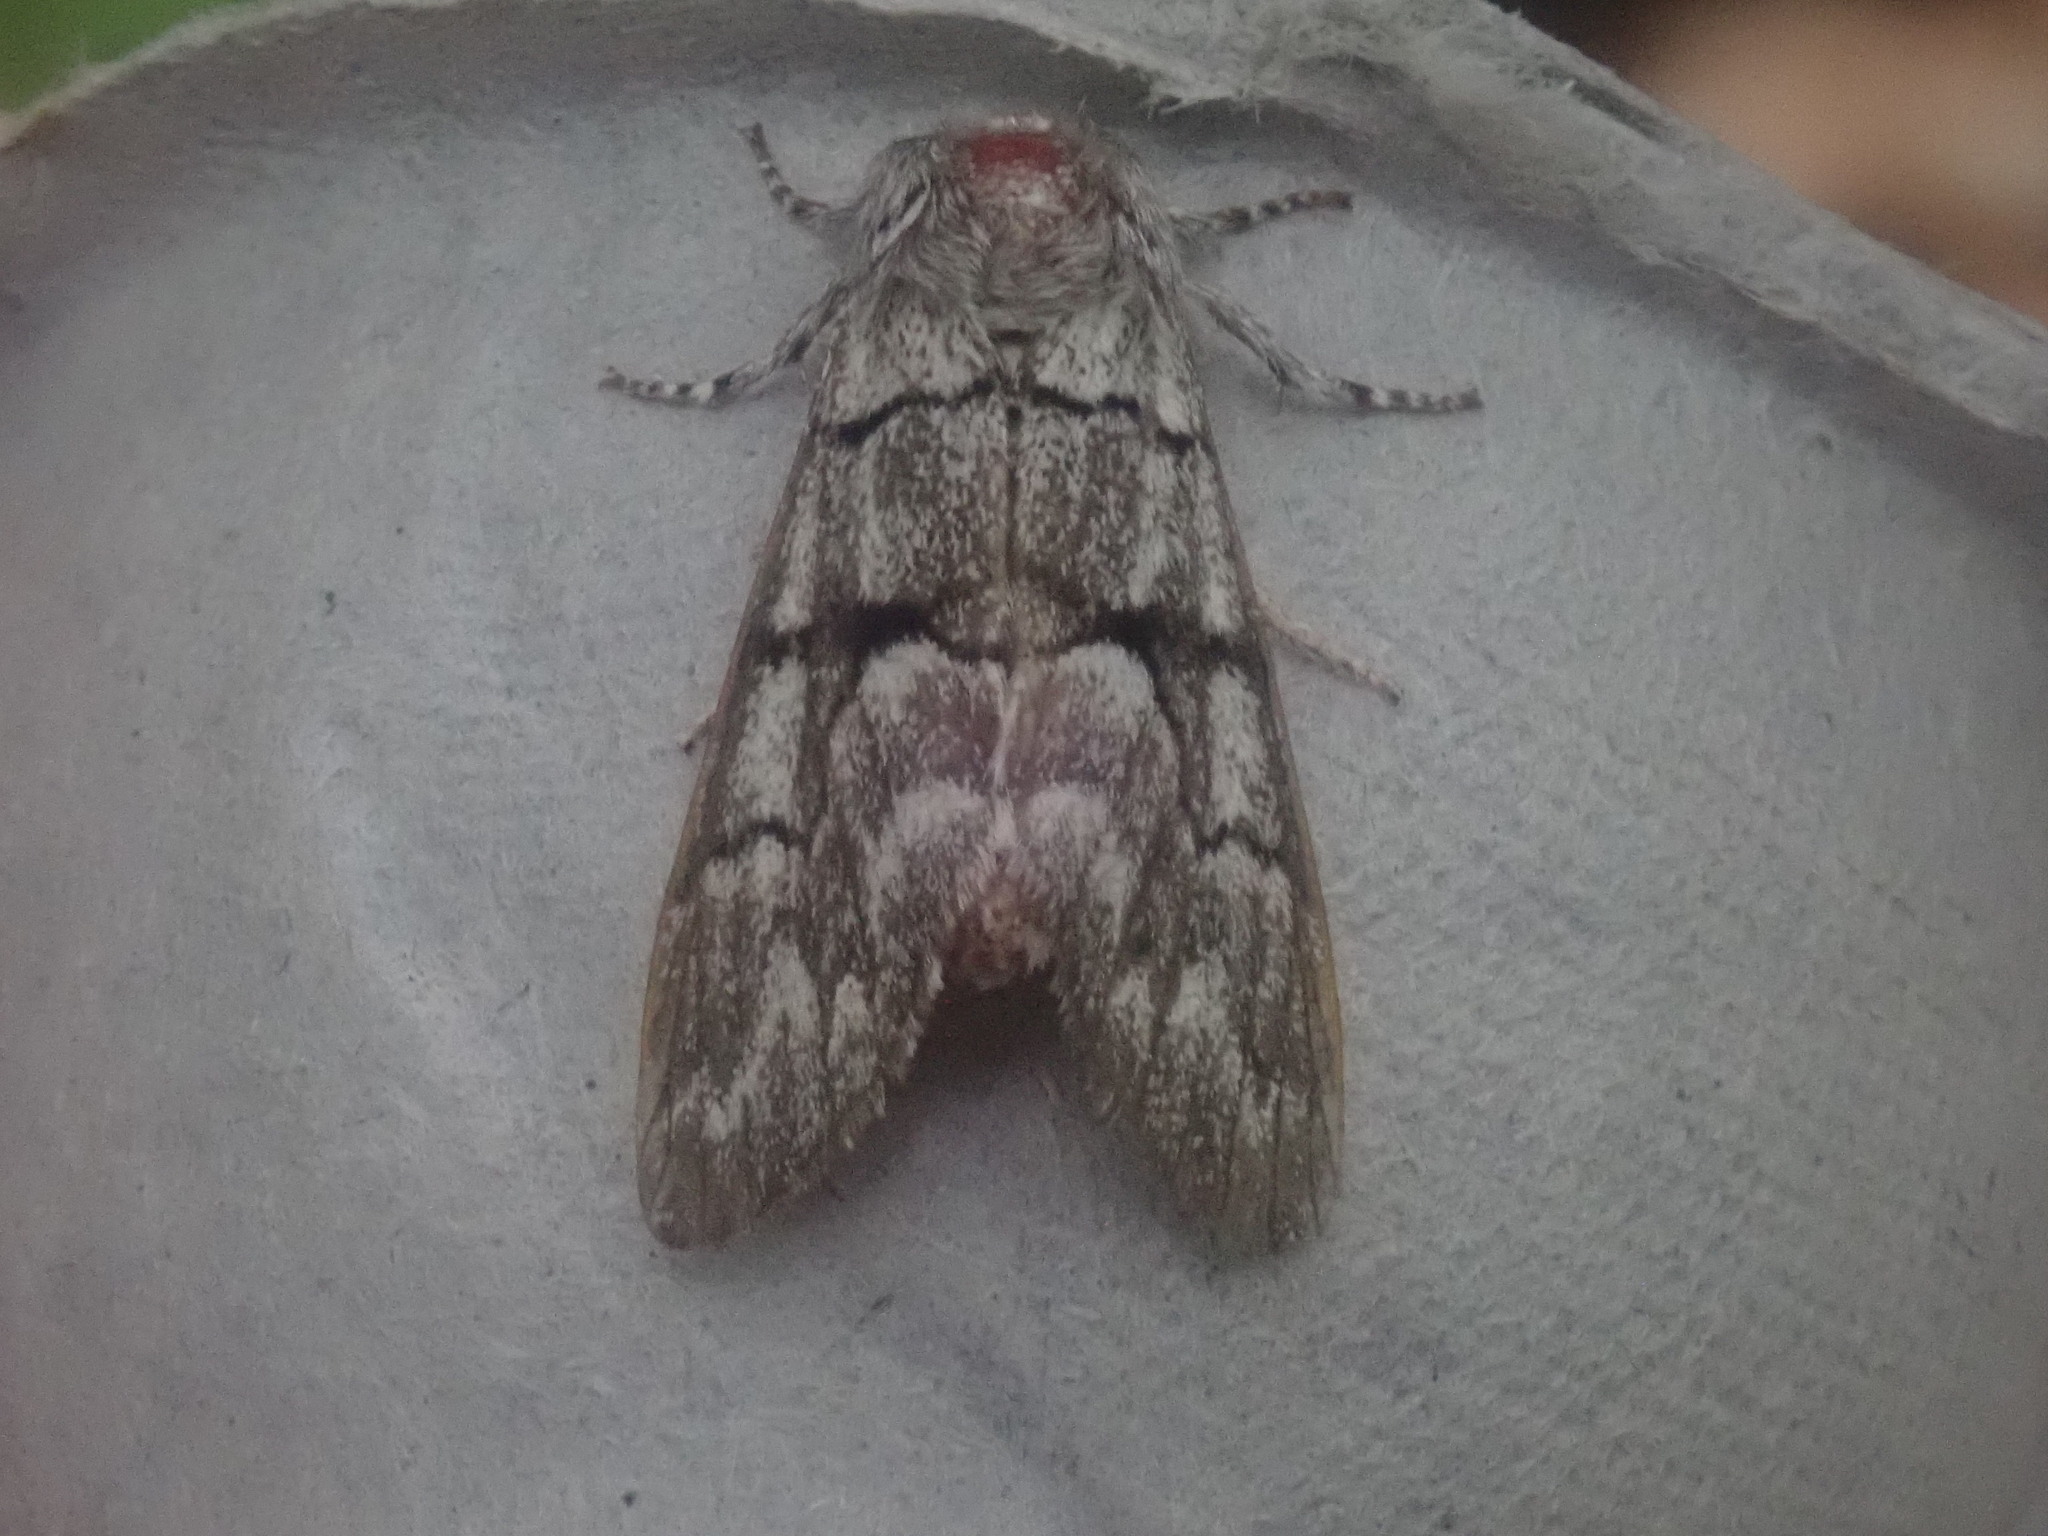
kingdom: Animalia
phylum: Arthropoda
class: Insecta
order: Lepidoptera
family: Noctuidae
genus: Panthea
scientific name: Panthea furcilla
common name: Eastern panthea moth
